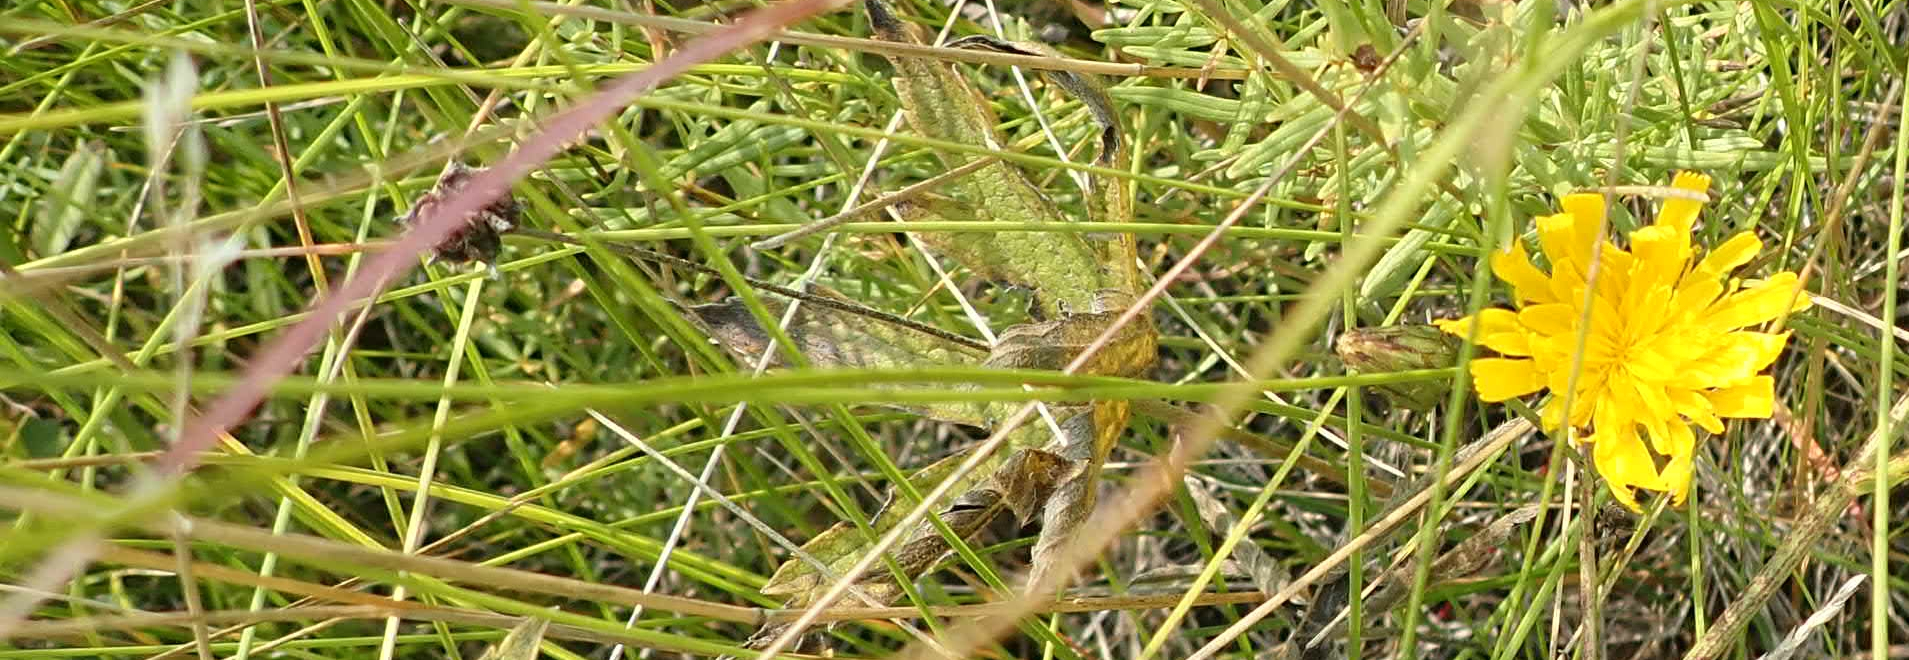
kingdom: Plantae
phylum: Tracheophyta
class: Magnoliopsida
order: Asterales
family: Asteraceae
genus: Hieracium
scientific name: Hieracium umbellatum
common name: Northern hawkweed
